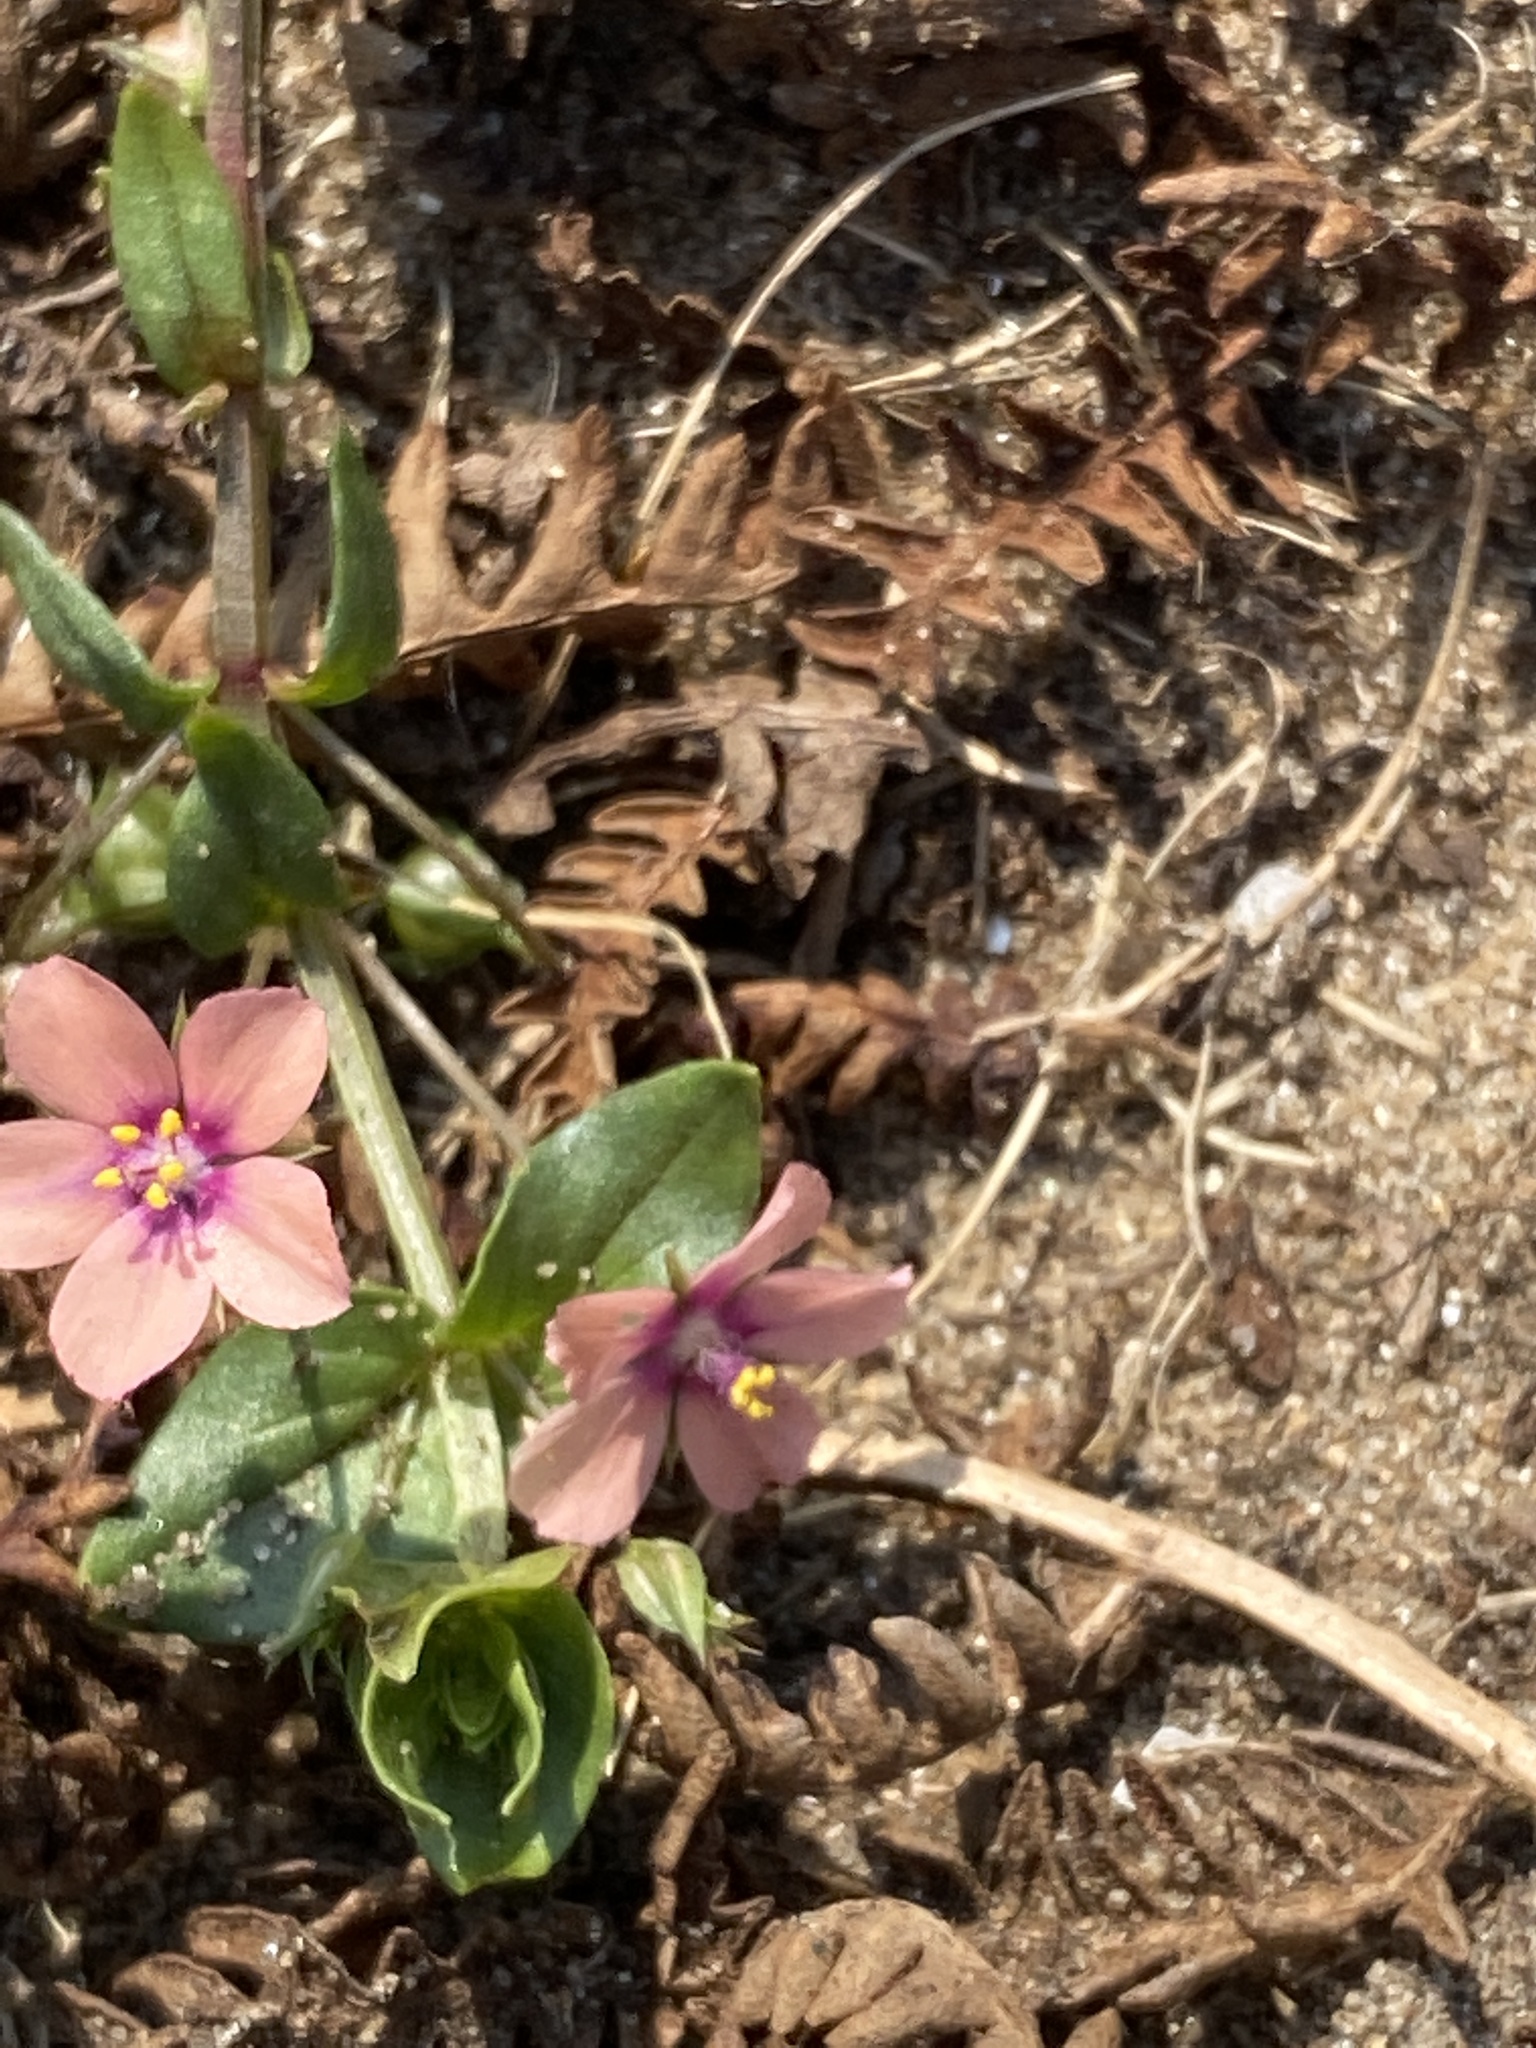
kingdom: Plantae
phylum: Tracheophyta
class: Magnoliopsida
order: Ericales
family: Primulaceae
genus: Lysimachia
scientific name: Lysimachia arvensis
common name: Scarlet pimpernel
